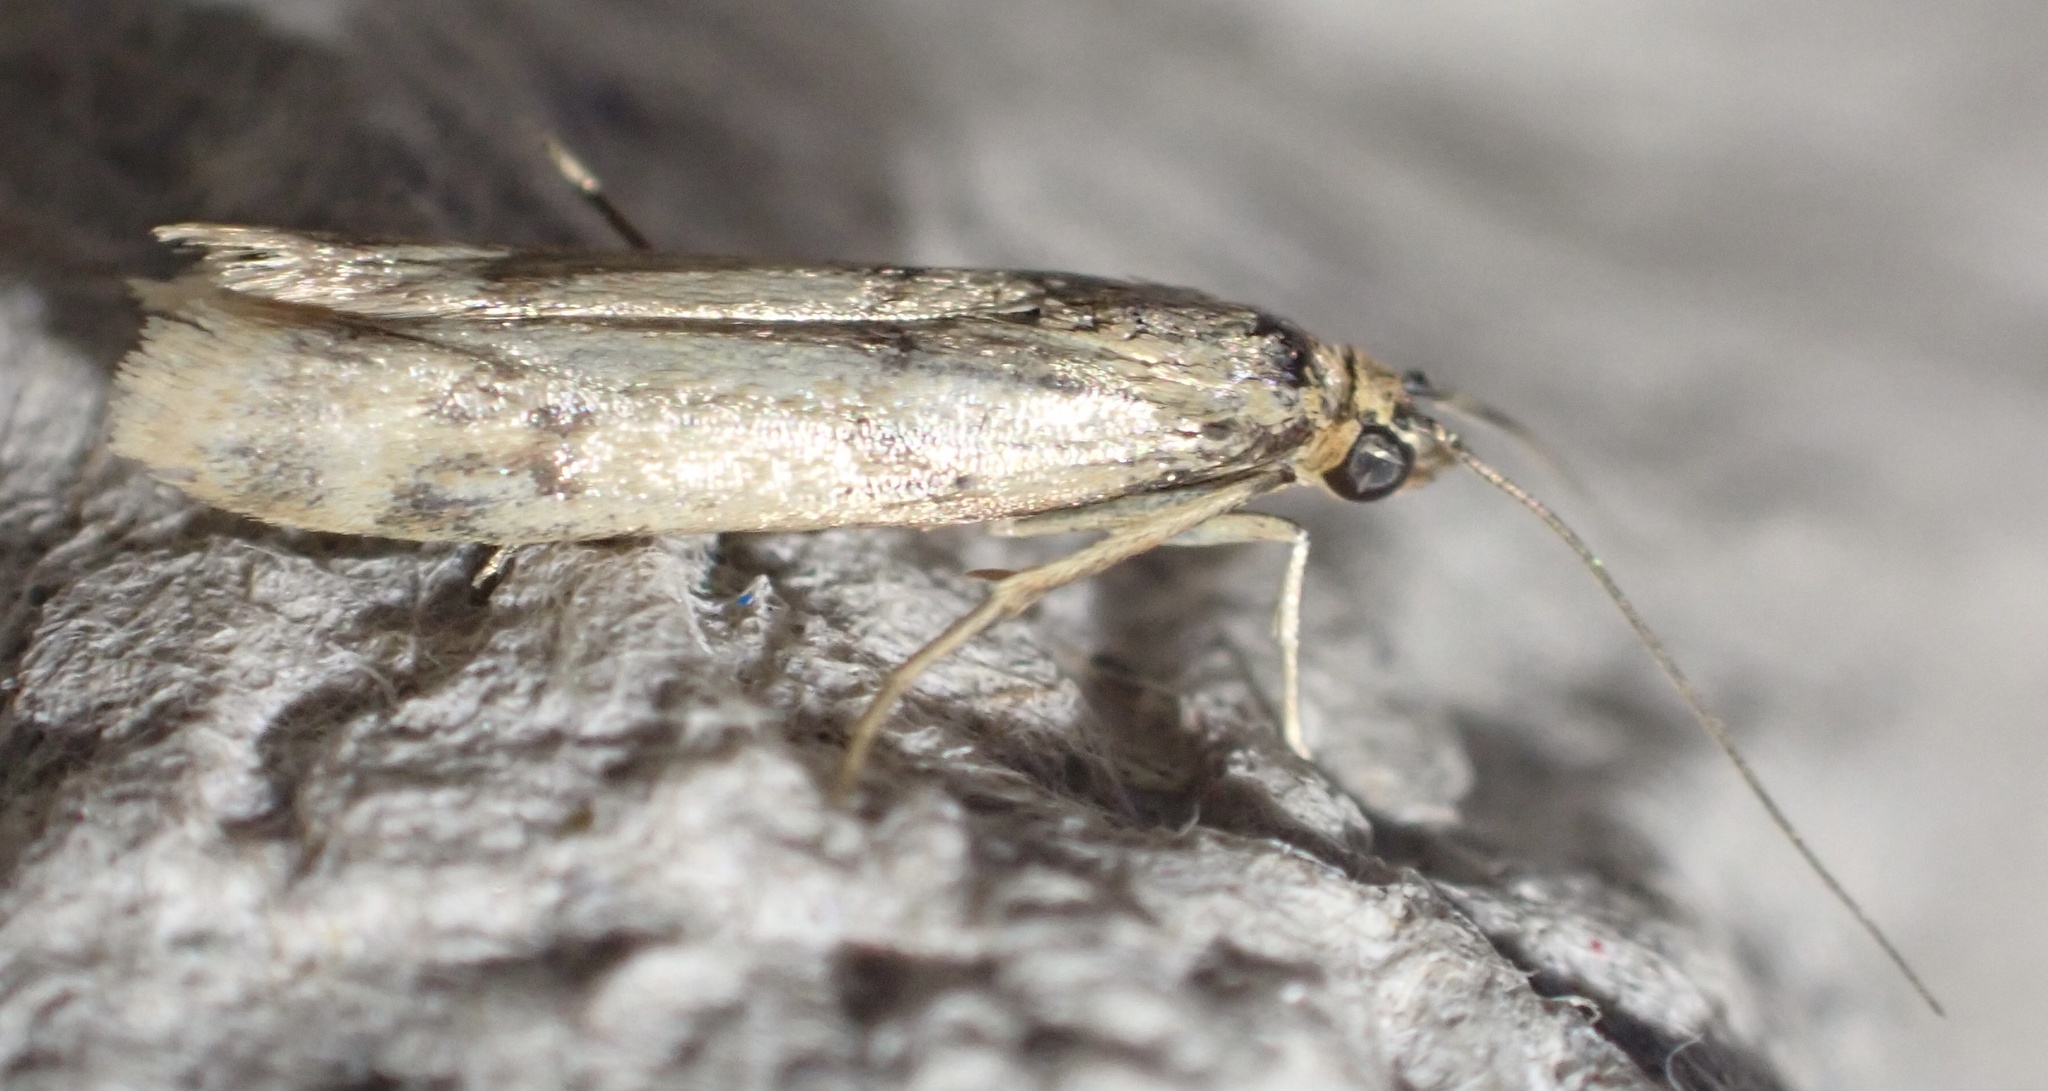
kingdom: Animalia
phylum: Arthropoda
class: Insecta
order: Lepidoptera
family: Pyralidae
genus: Homoeosoma
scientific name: Homoeosoma sinuella
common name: Twin-barred knot-horn
